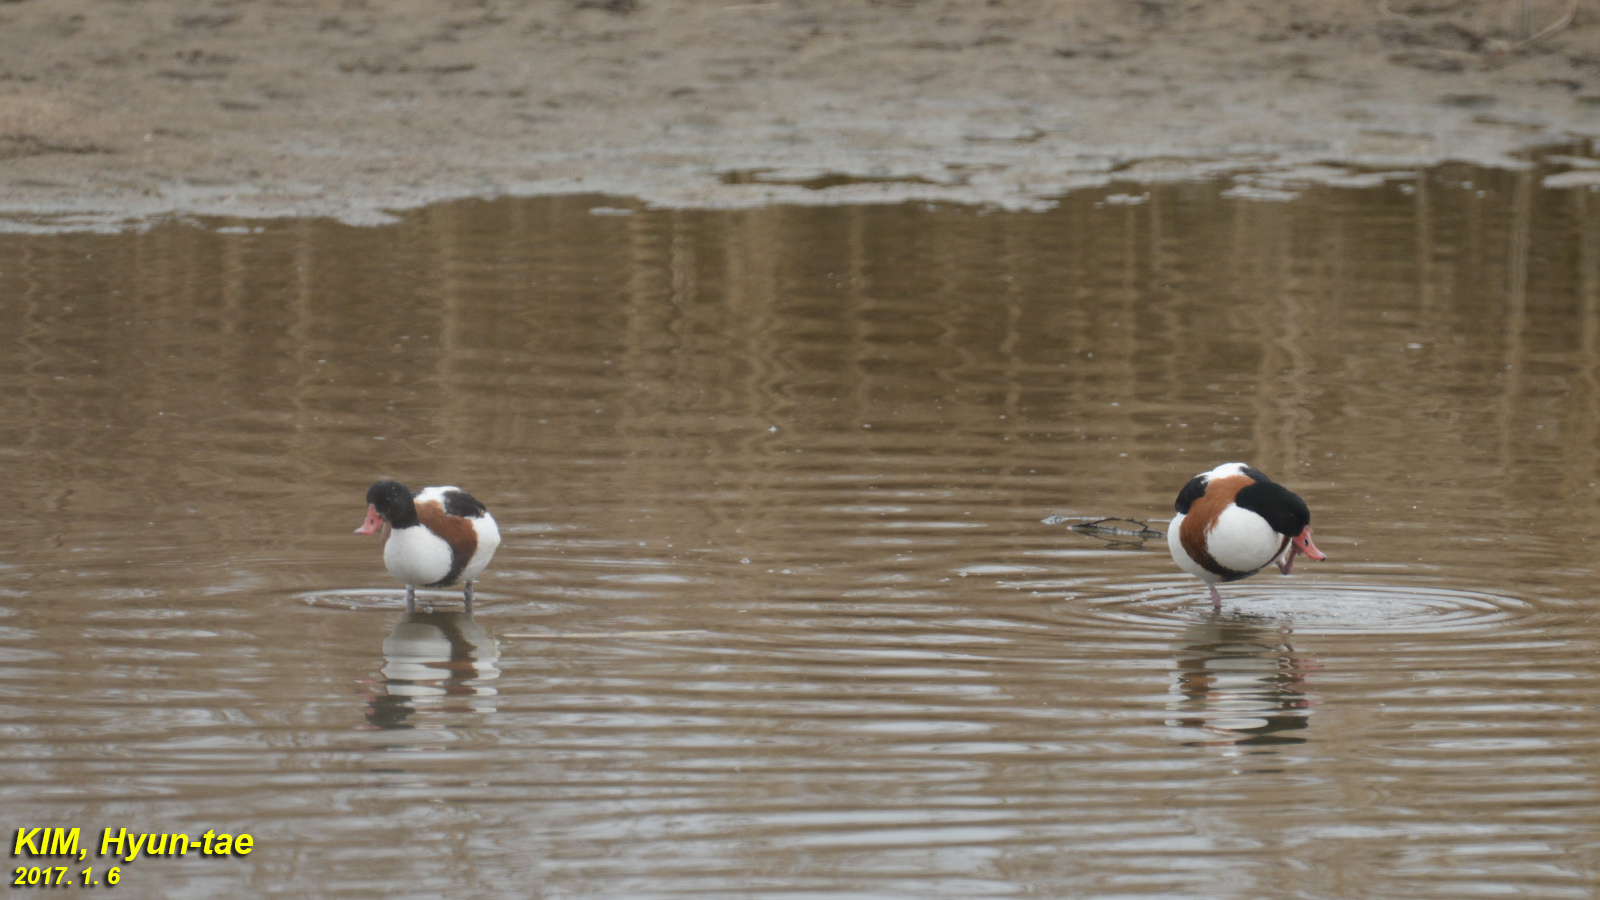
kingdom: Animalia
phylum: Chordata
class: Aves
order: Anseriformes
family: Anatidae
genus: Tadorna
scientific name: Tadorna tadorna
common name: Common shelduck
